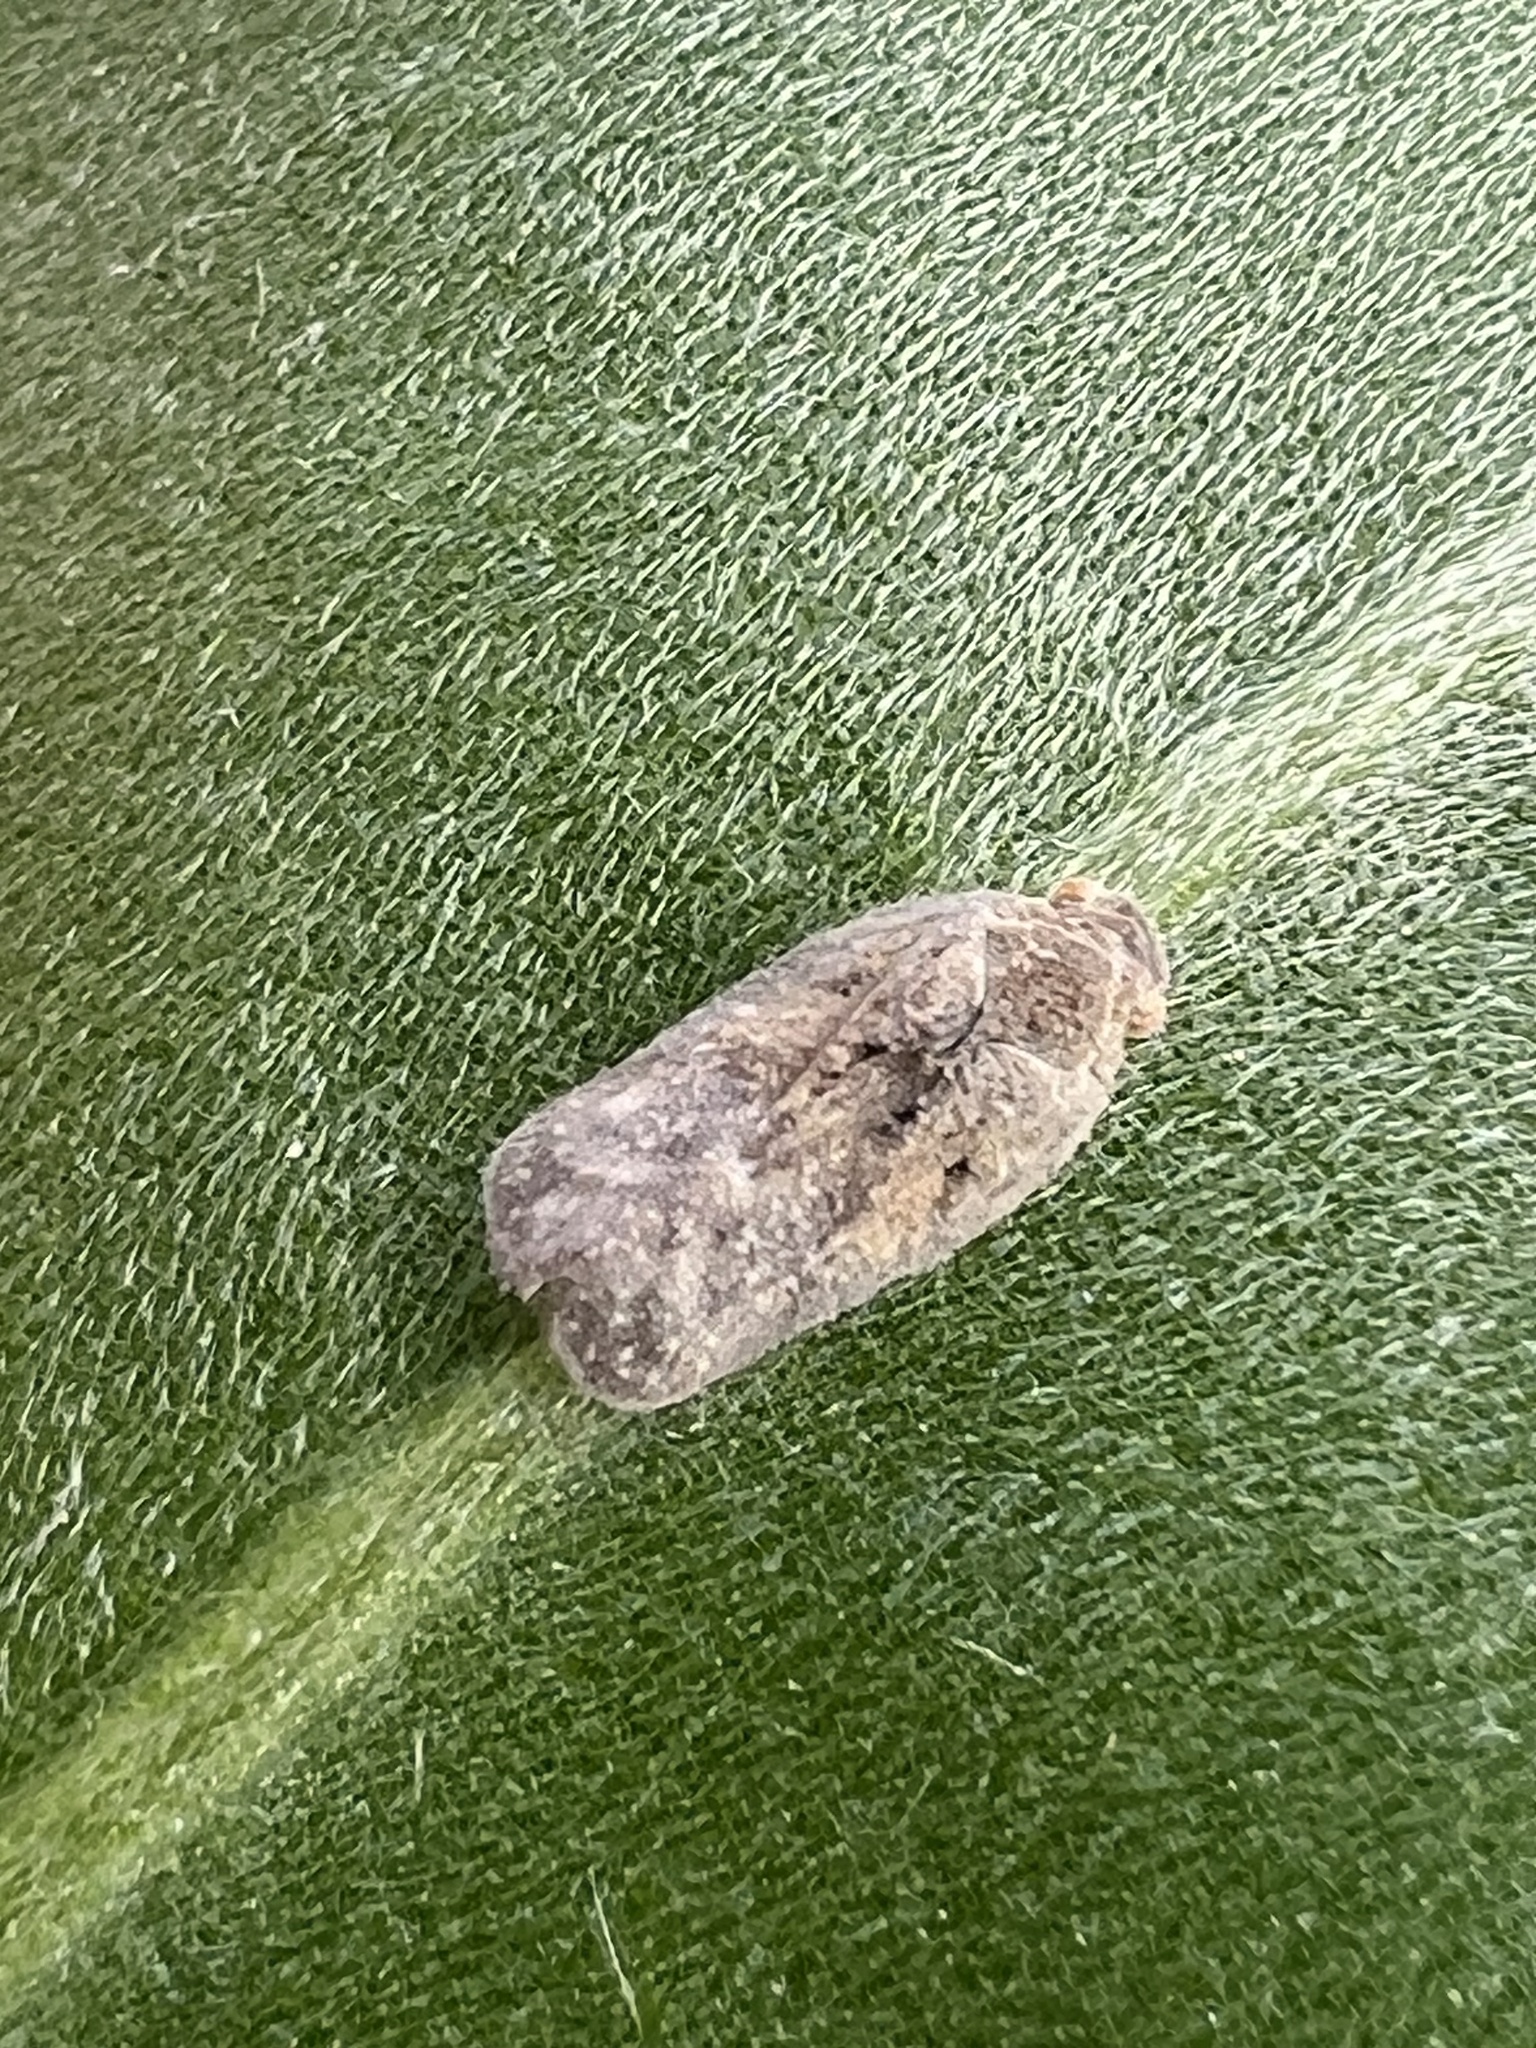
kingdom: Animalia
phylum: Arthropoda
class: Insecta
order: Hemiptera
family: Flatidae
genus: Melormenis
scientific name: Melormenis basalis
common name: Puerto rican planthopper
